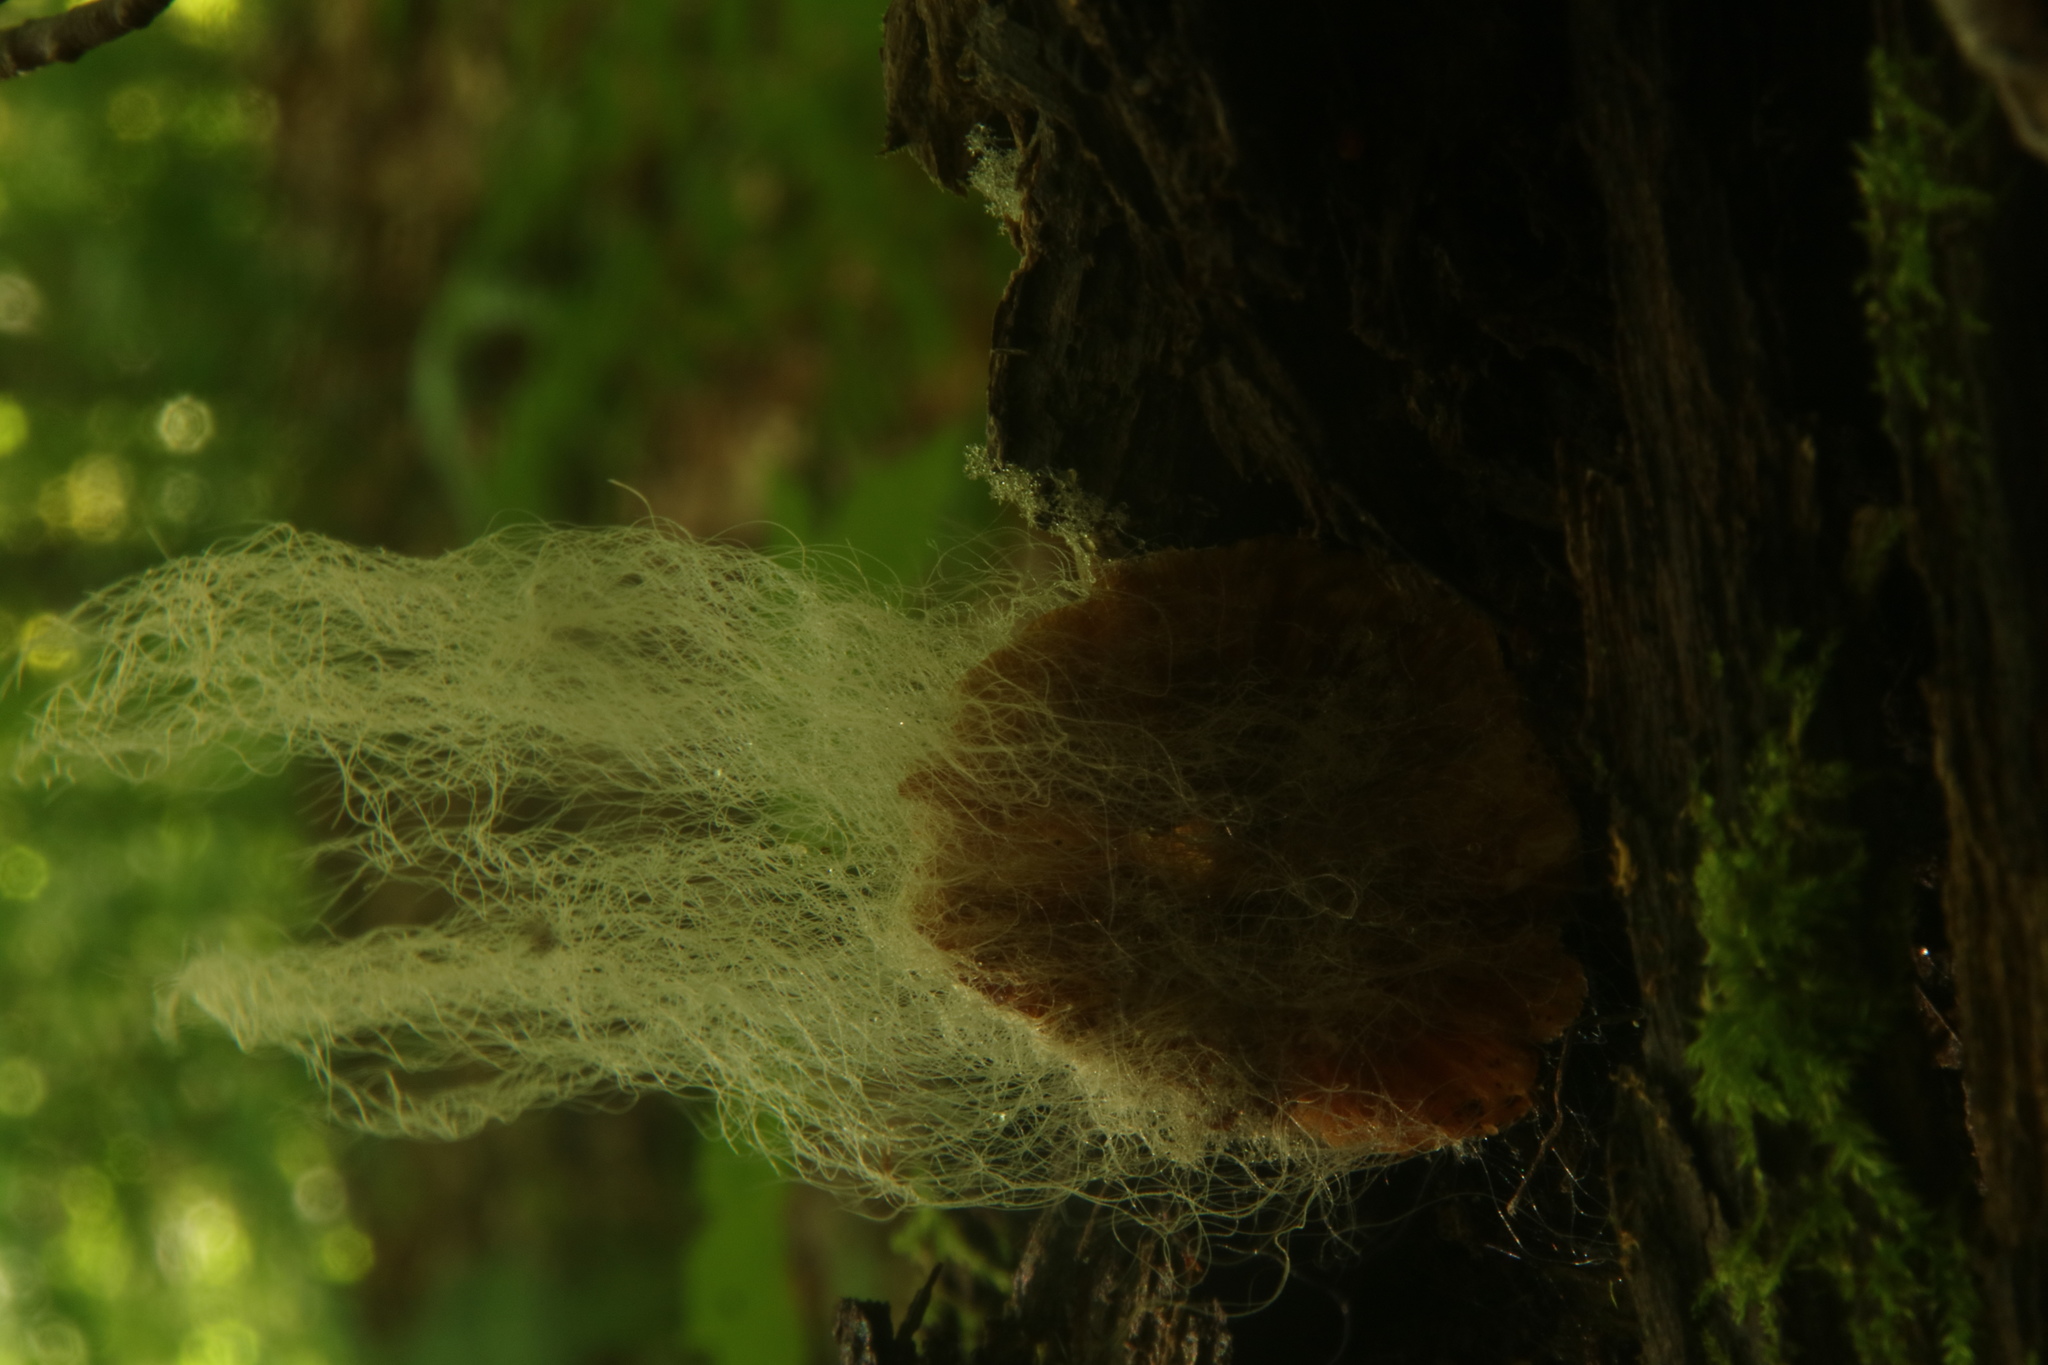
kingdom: Fungi
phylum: Mucoromycota
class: Mucoromycetes
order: Mucorales
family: Rhizopodaceae
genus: Syzygites
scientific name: Syzygites megalocarpus
